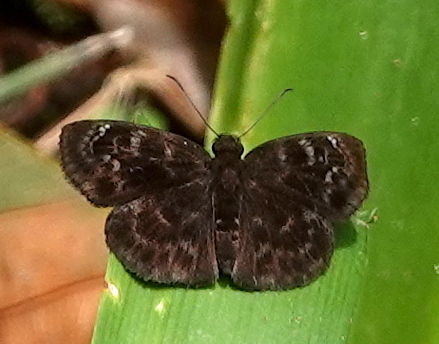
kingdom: Animalia
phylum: Arthropoda
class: Insecta
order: Lepidoptera
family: Hesperiidae
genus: Ouleus
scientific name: Ouleus fridericus
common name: Fridericus spreadwing
